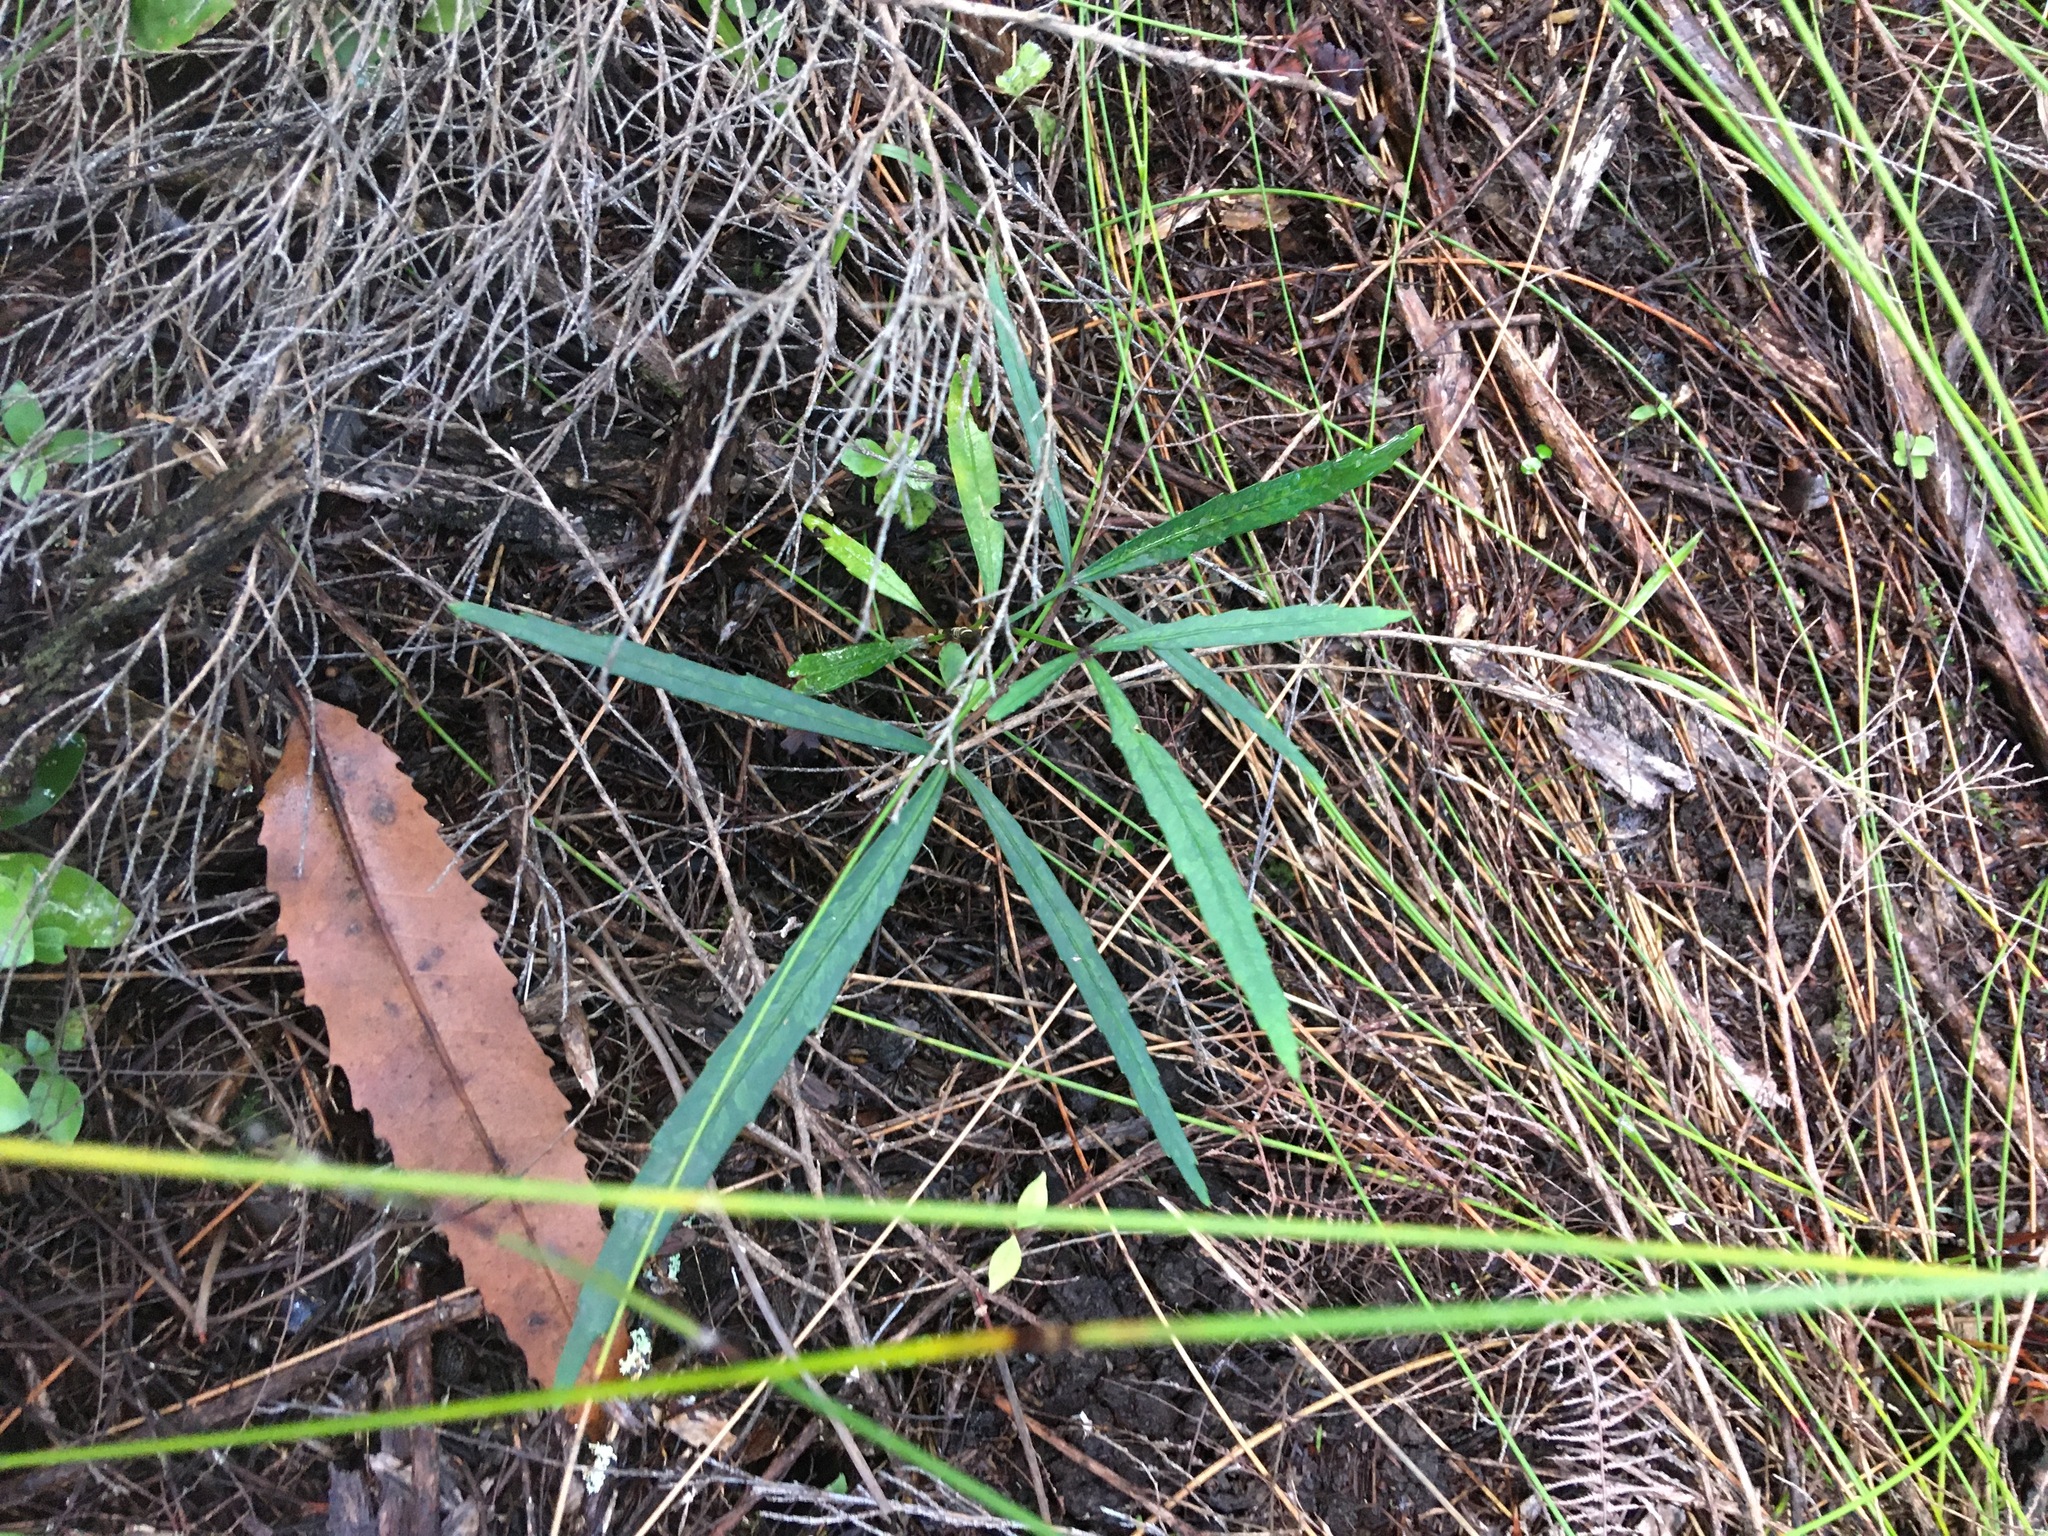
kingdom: Plantae
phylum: Tracheophyta
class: Magnoliopsida
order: Apiales
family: Araliaceae
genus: Pseudopanax
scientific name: Pseudopanax
